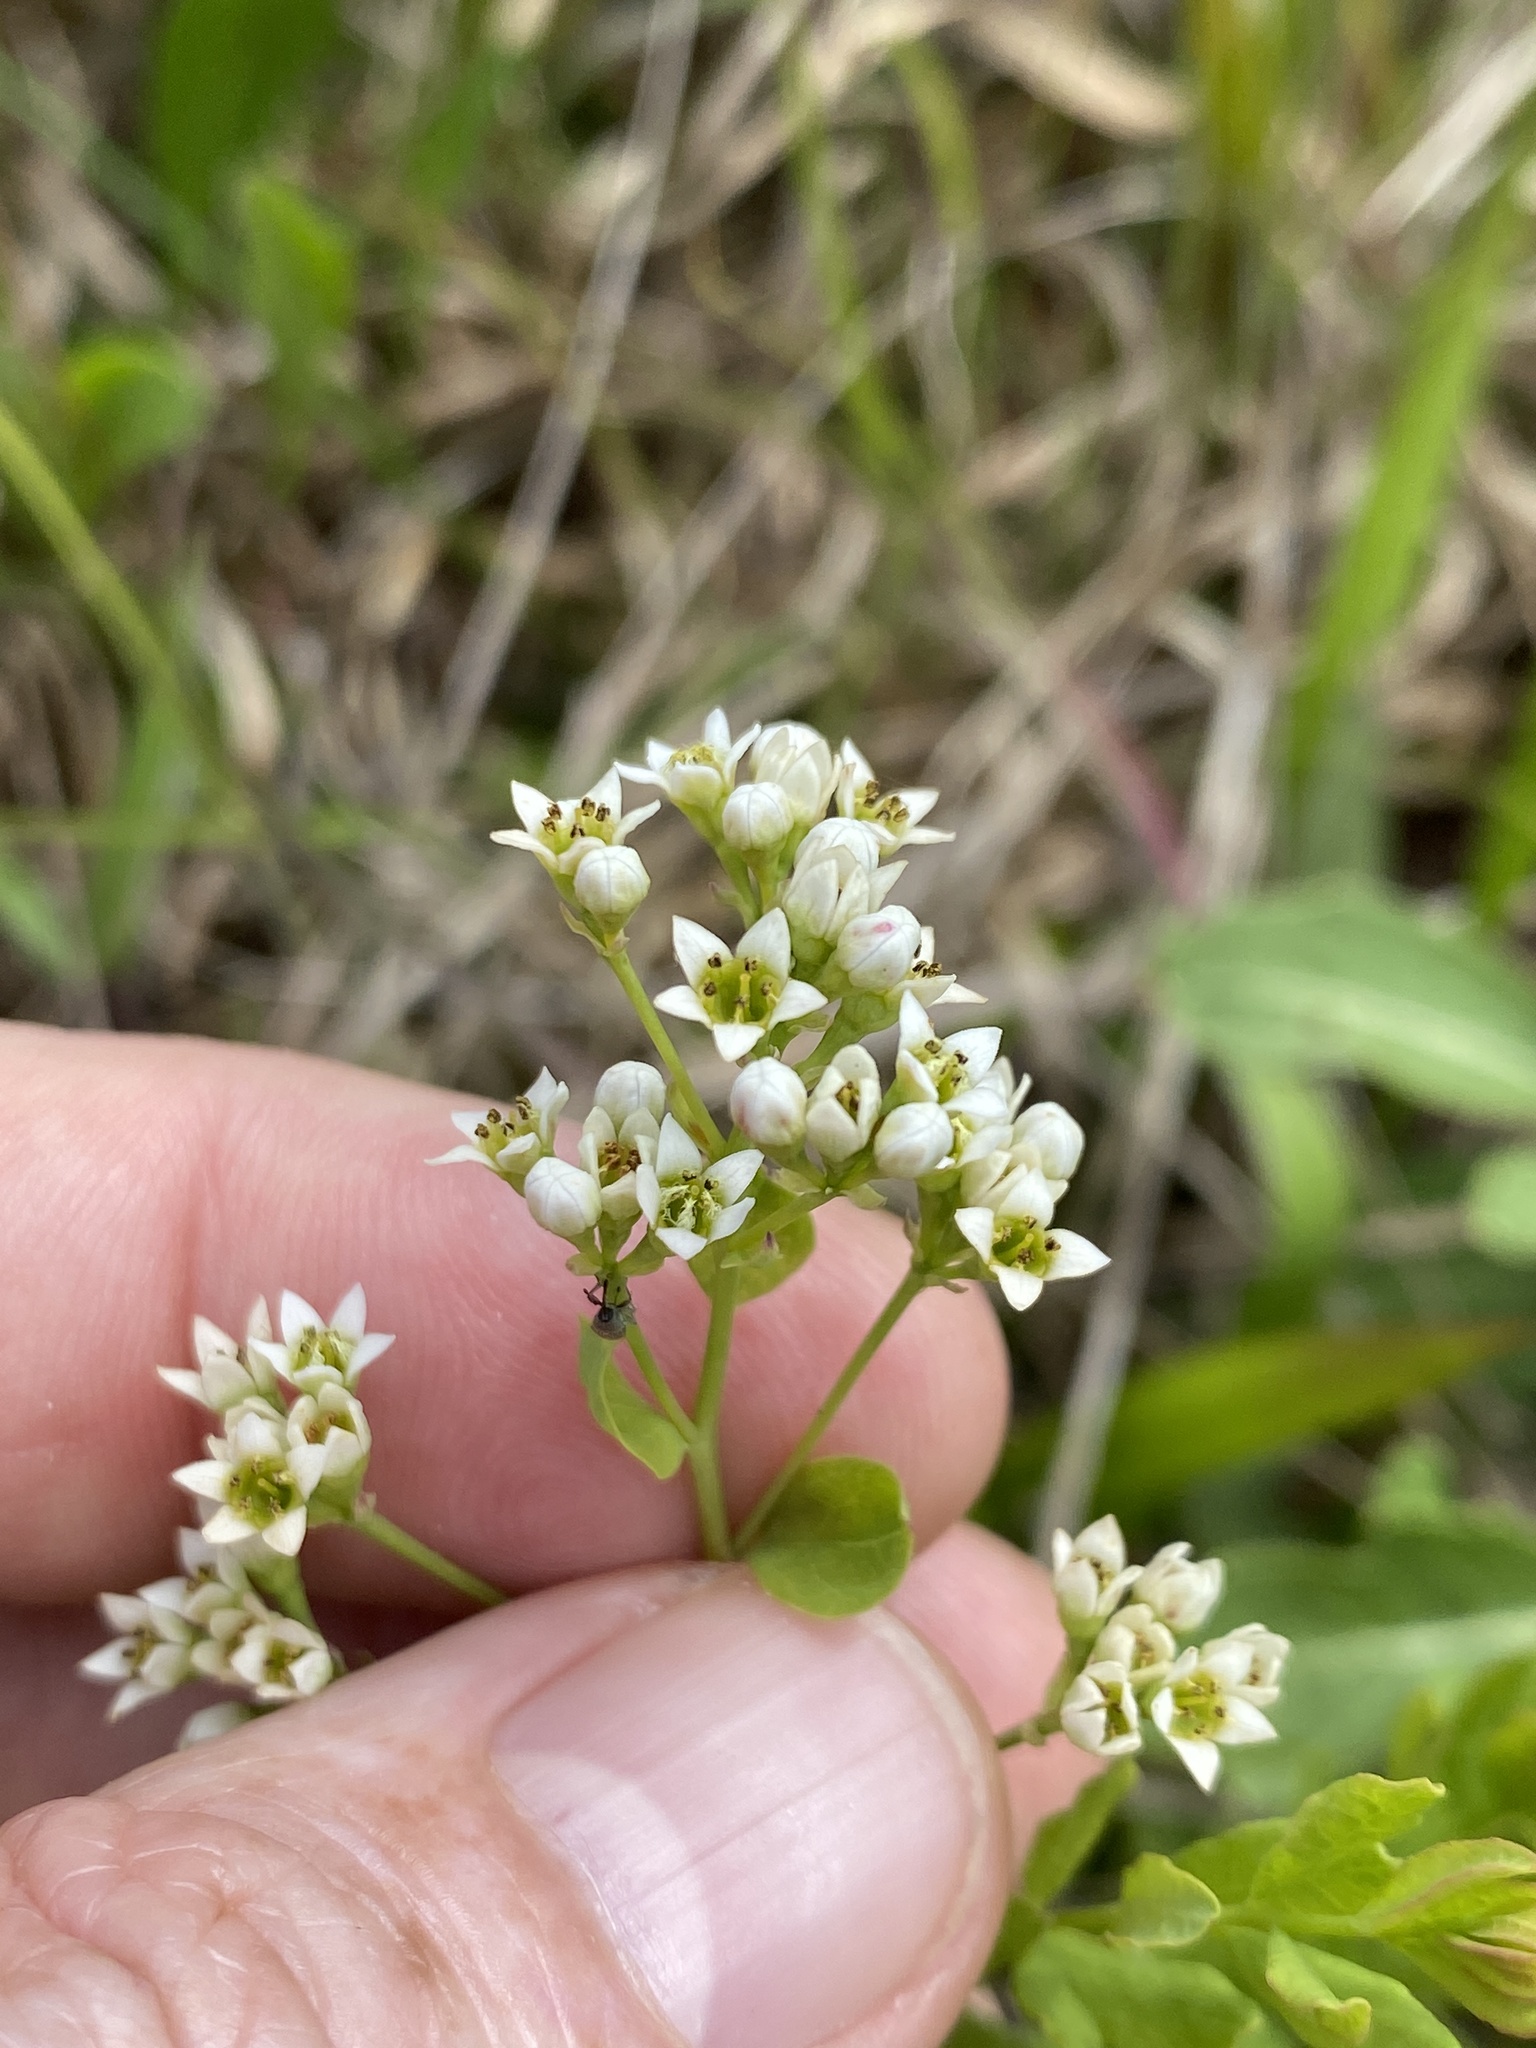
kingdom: Plantae
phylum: Tracheophyta
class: Magnoliopsida
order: Santalales
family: Comandraceae
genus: Comandra
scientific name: Comandra umbellata
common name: Bastard toadflax
